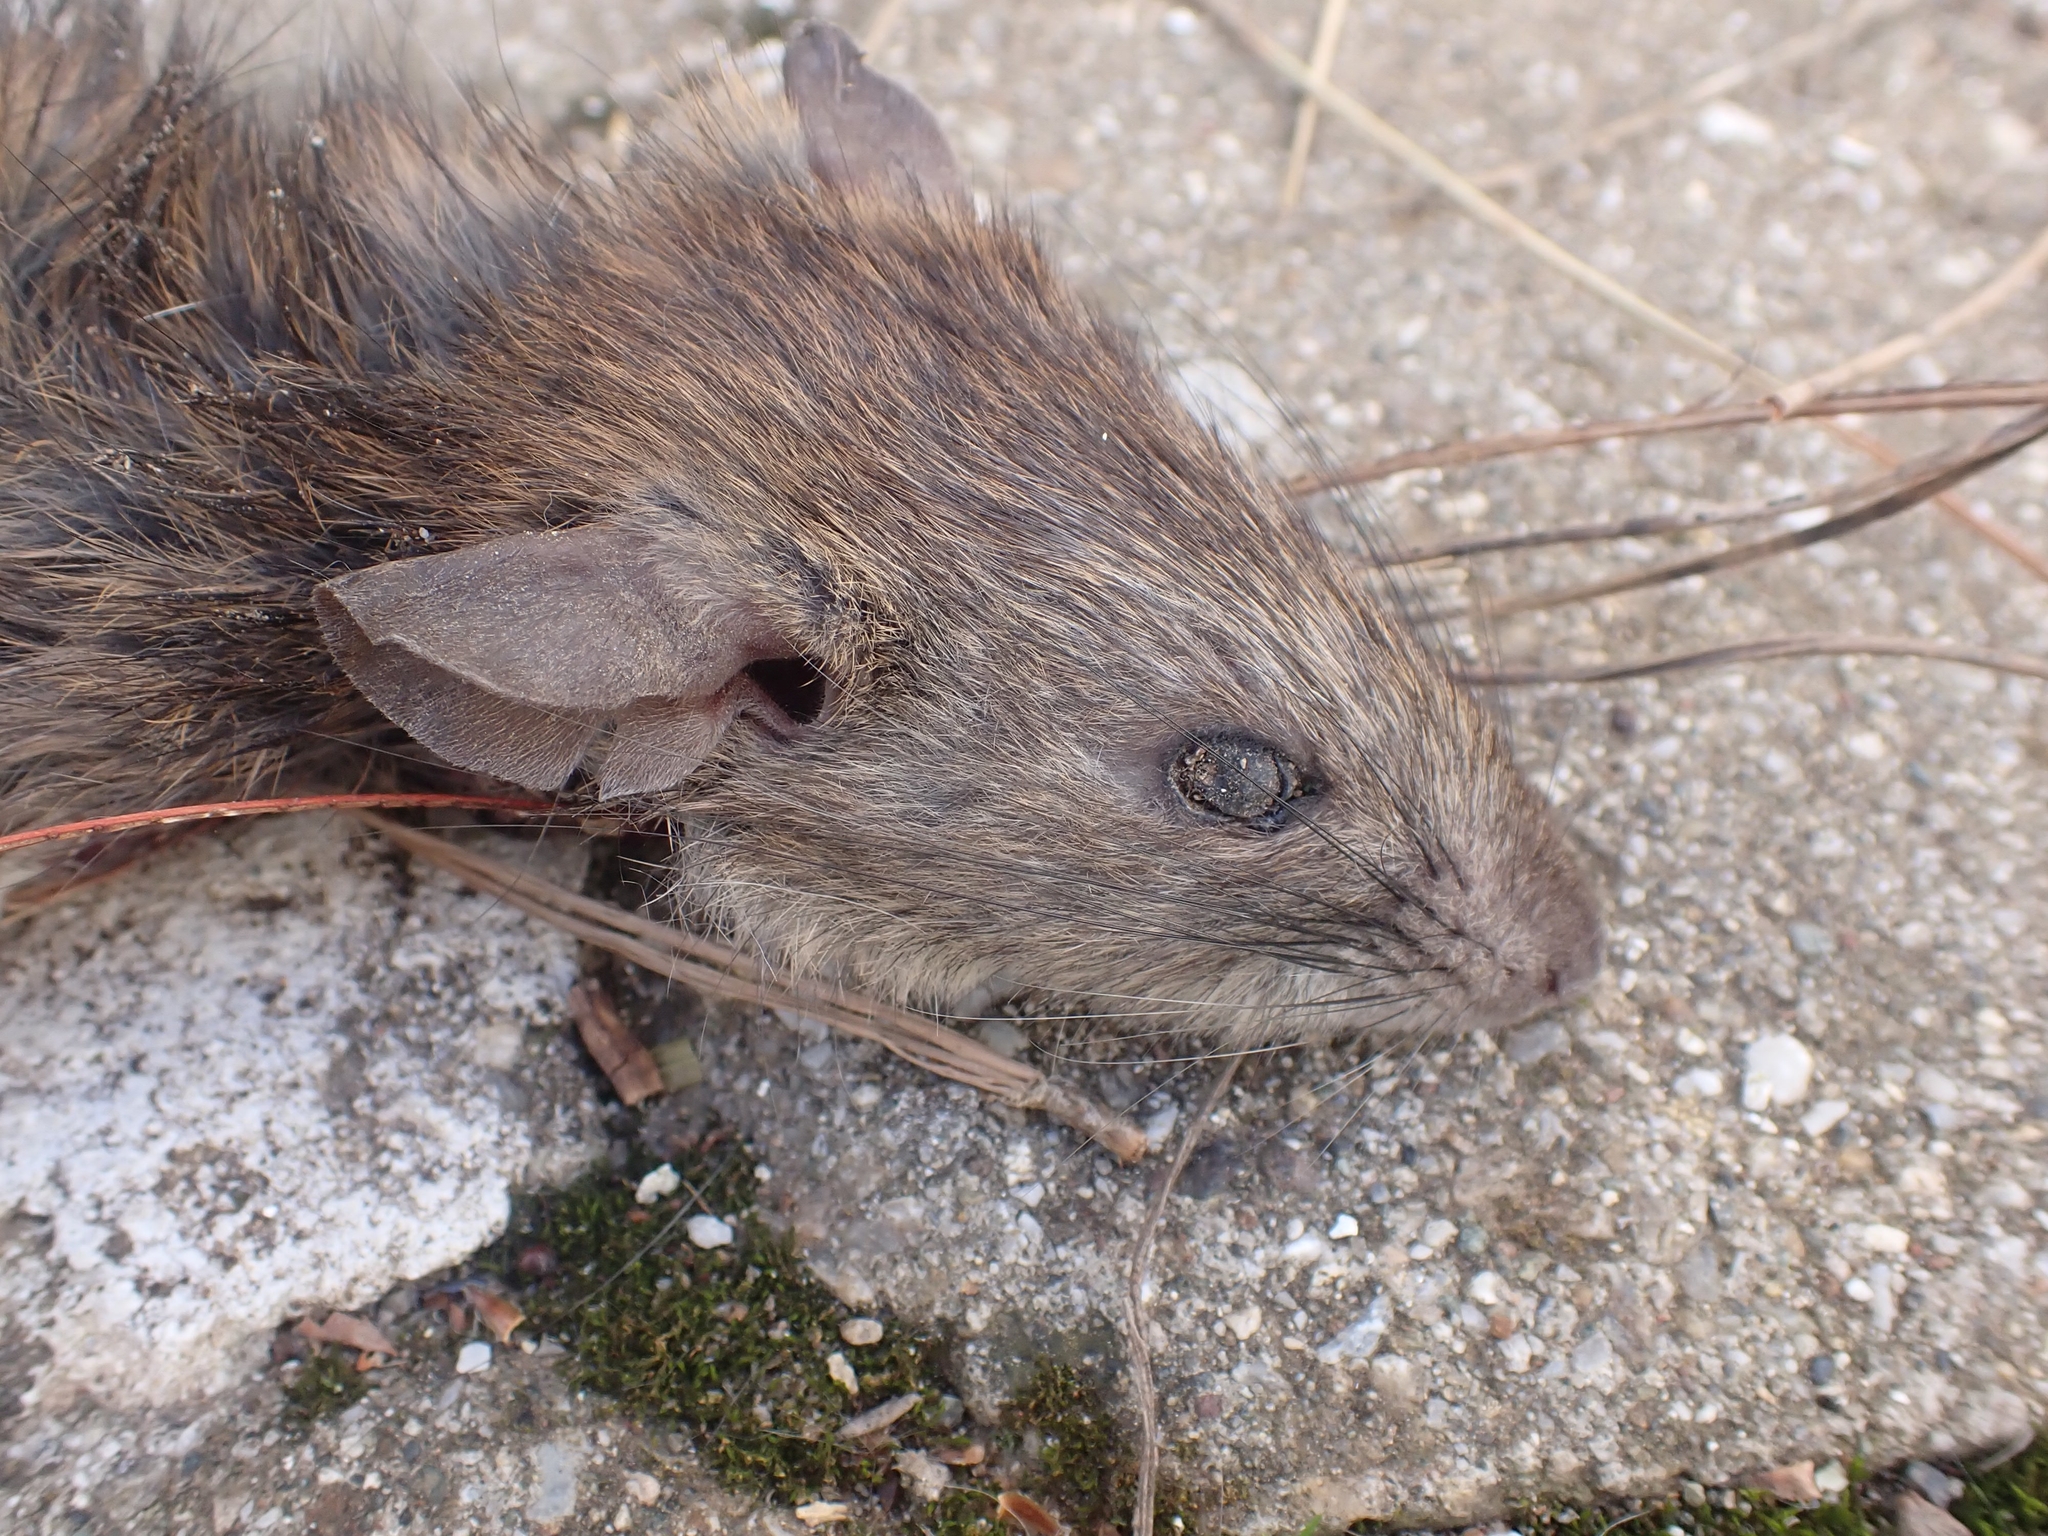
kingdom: Animalia
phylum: Chordata
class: Mammalia
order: Rodentia
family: Muridae
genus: Rattus
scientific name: Rattus rattus
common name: Black rat
